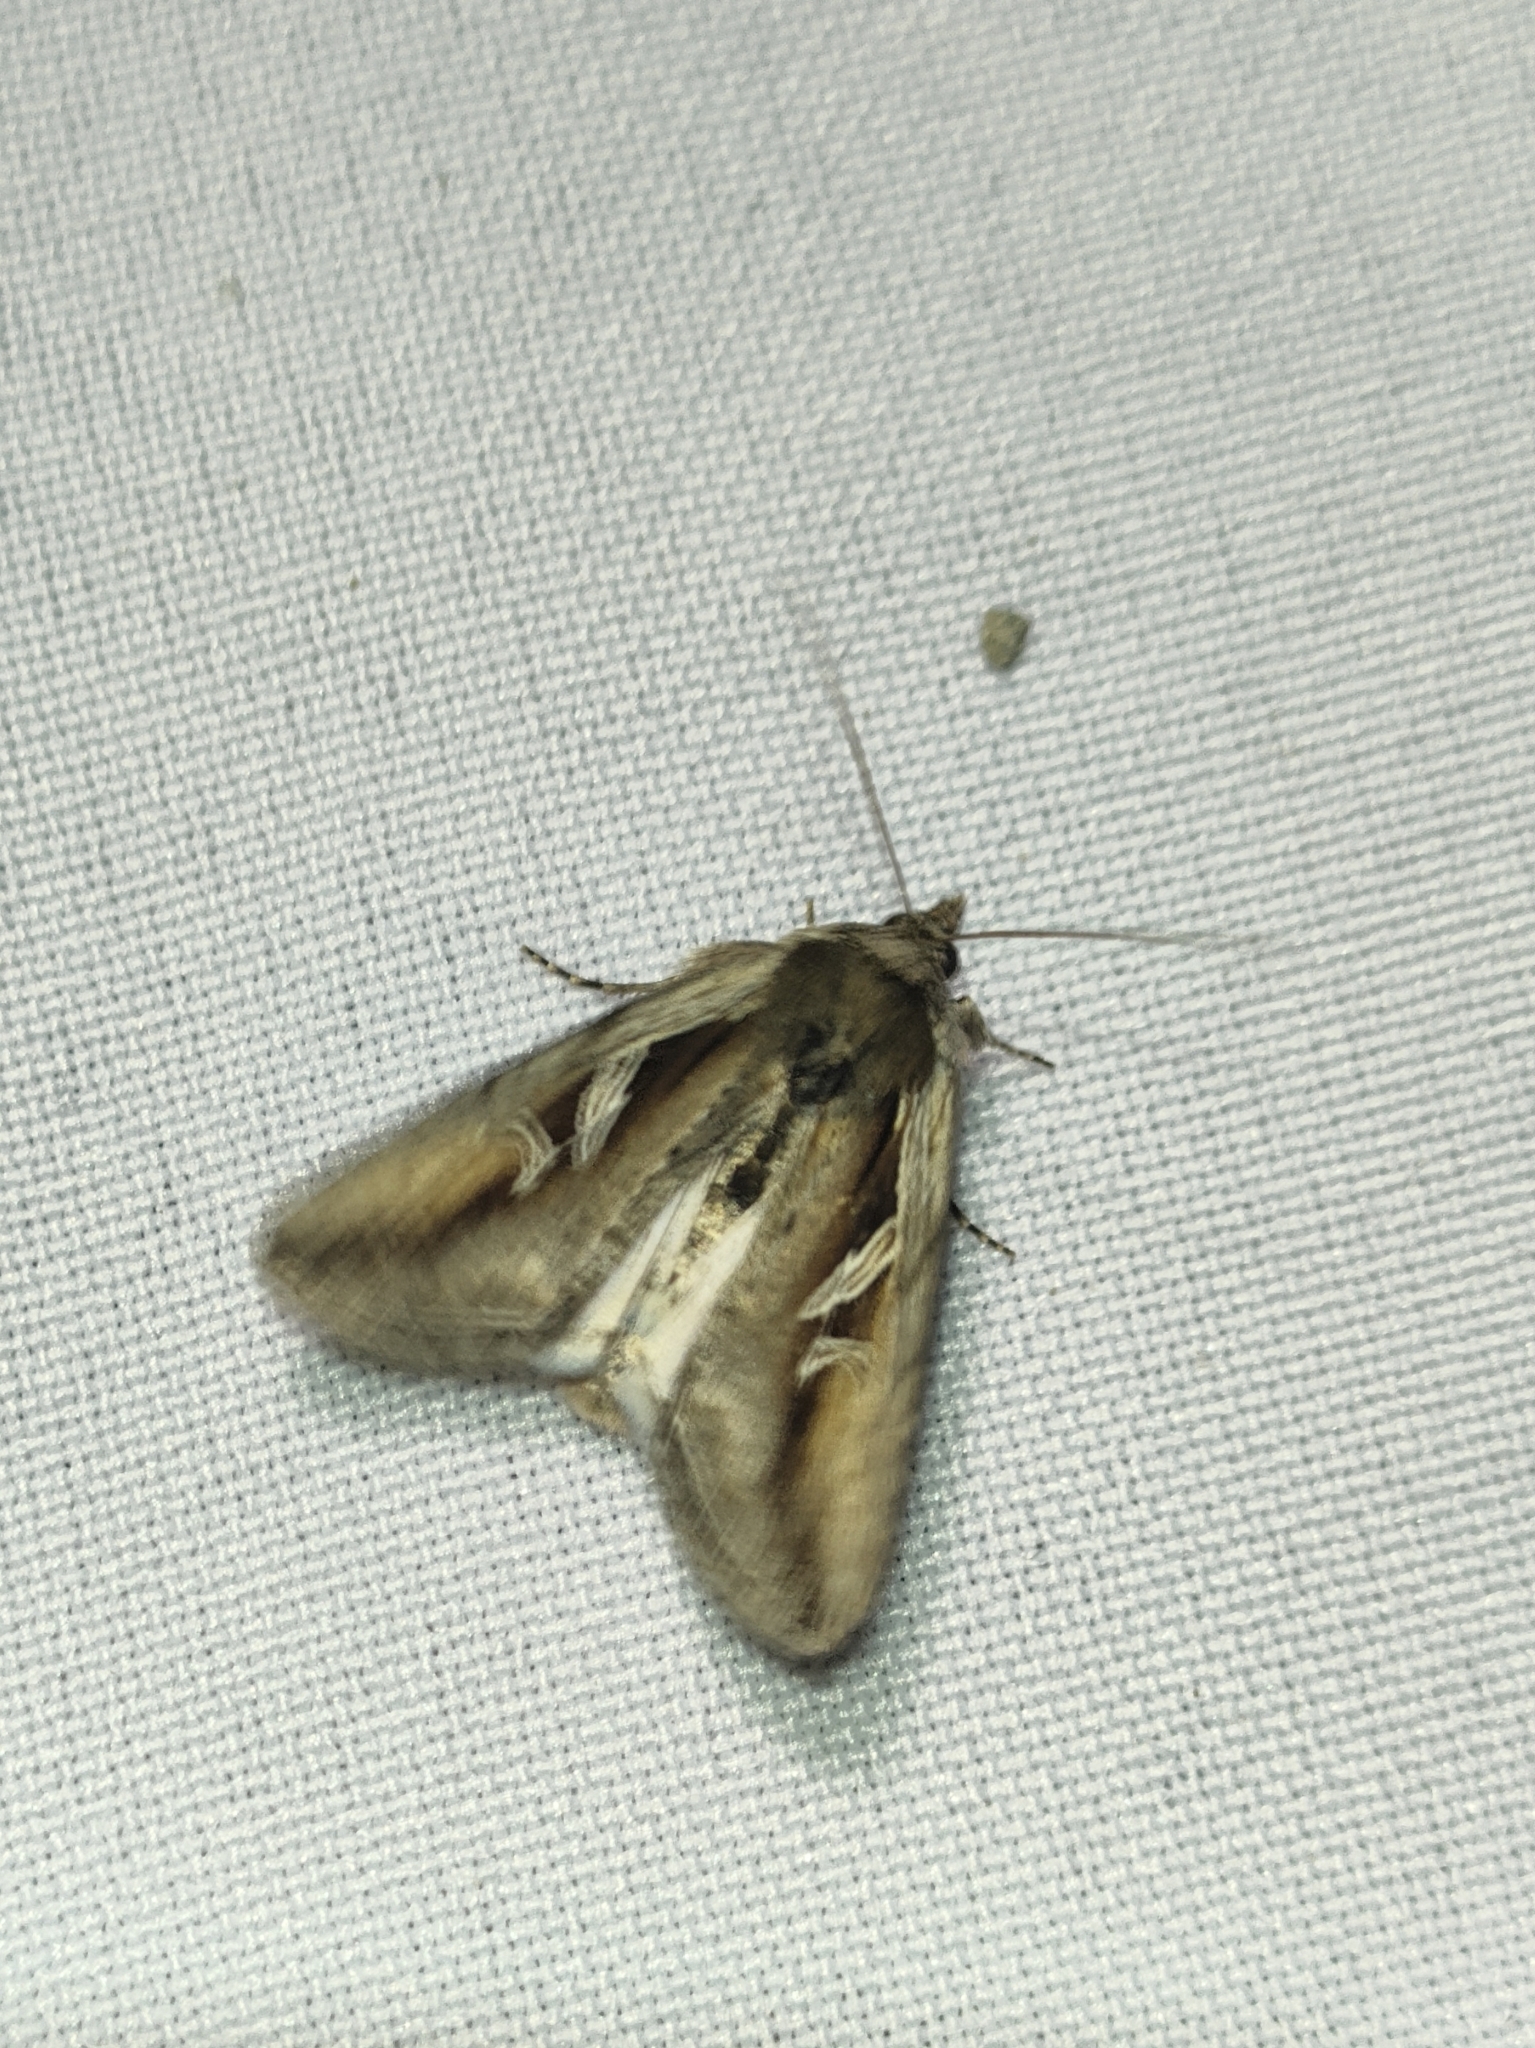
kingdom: Animalia
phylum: Arthropoda
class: Insecta
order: Lepidoptera
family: Noctuidae
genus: Lophoterges
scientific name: Lophoterges millierei
